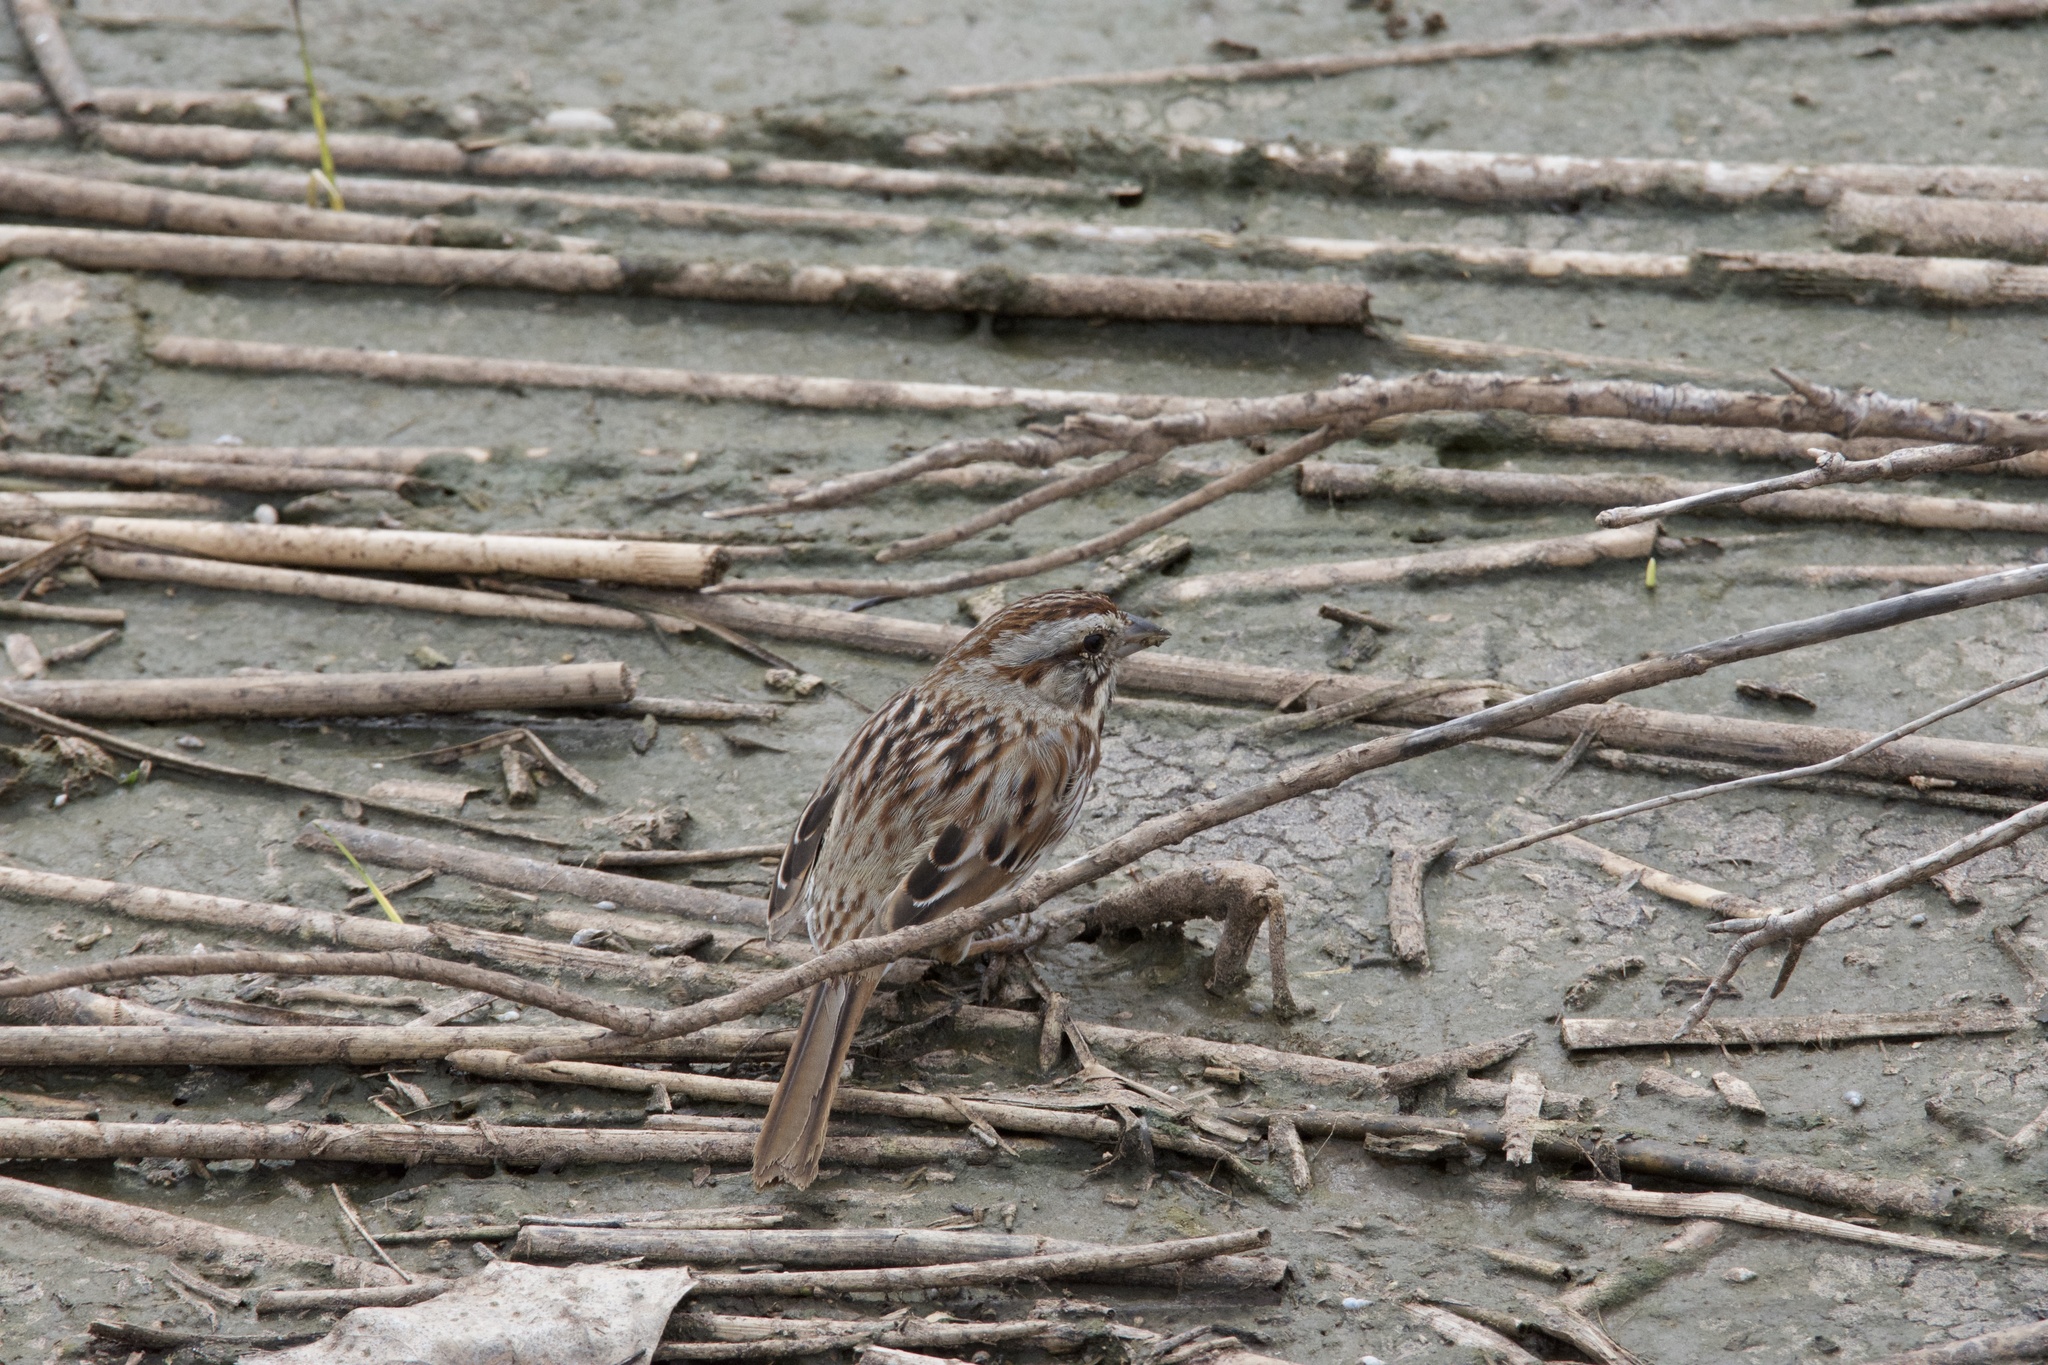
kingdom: Animalia
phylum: Chordata
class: Aves
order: Passeriformes
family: Passerellidae
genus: Melospiza
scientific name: Melospiza melodia
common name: Song sparrow
